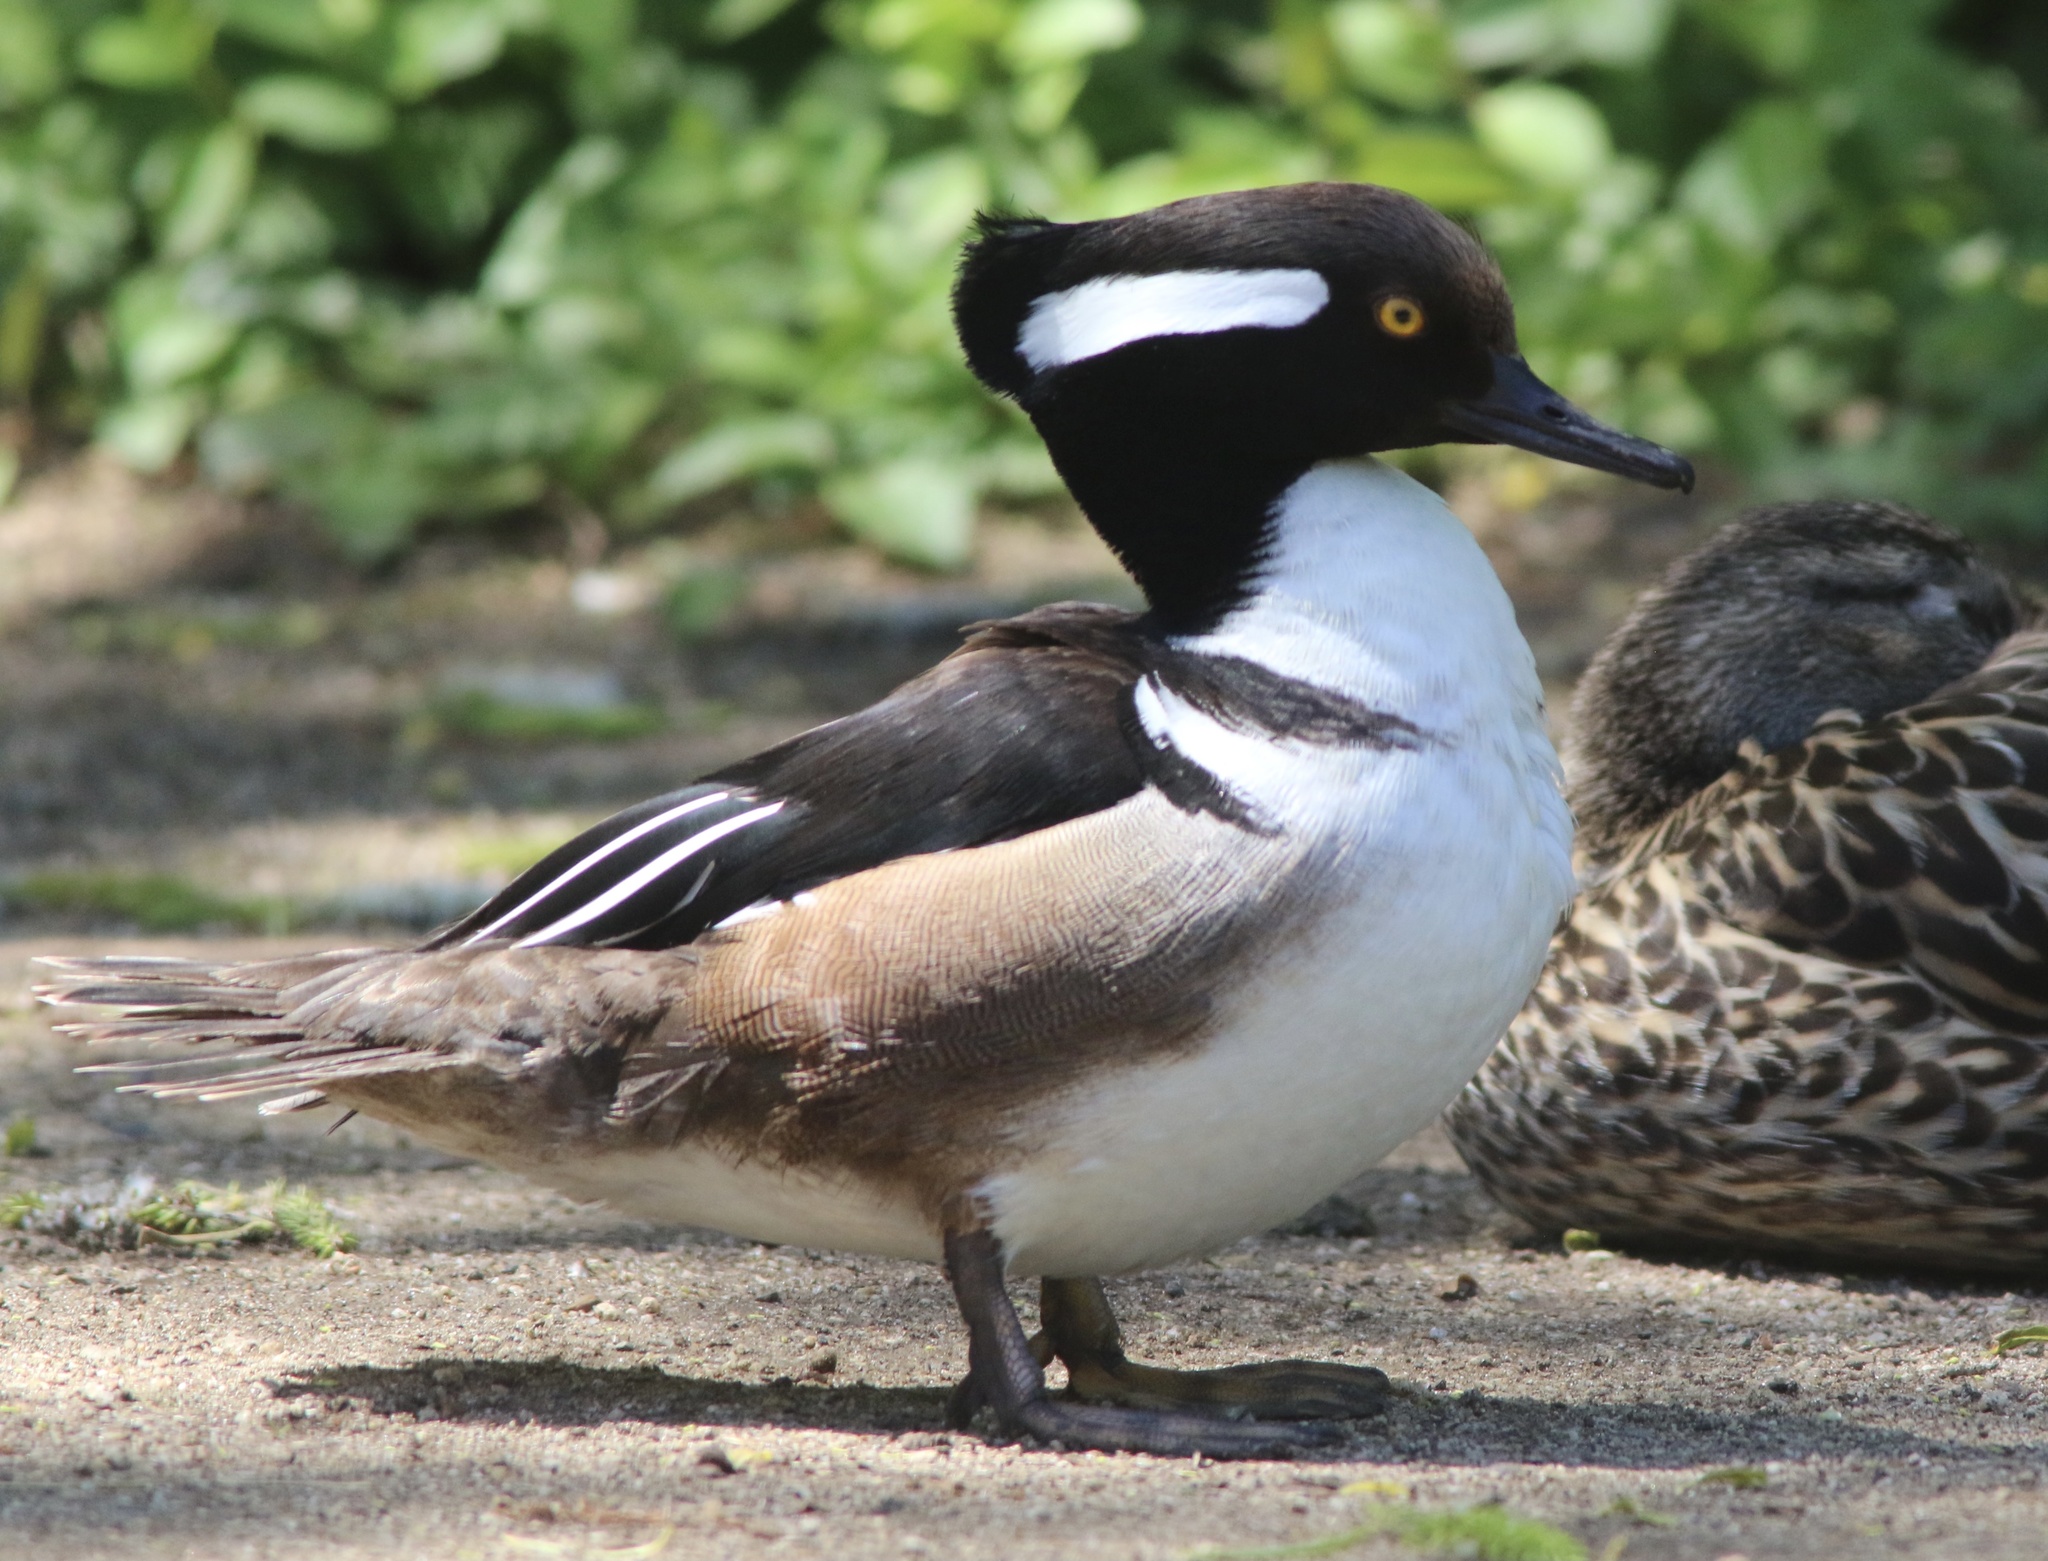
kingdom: Animalia
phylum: Chordata
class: Aves
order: Anseriformes
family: Anatidae
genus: Lophodytes
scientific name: Lophodytes cucullatus
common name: Hooded merganser
